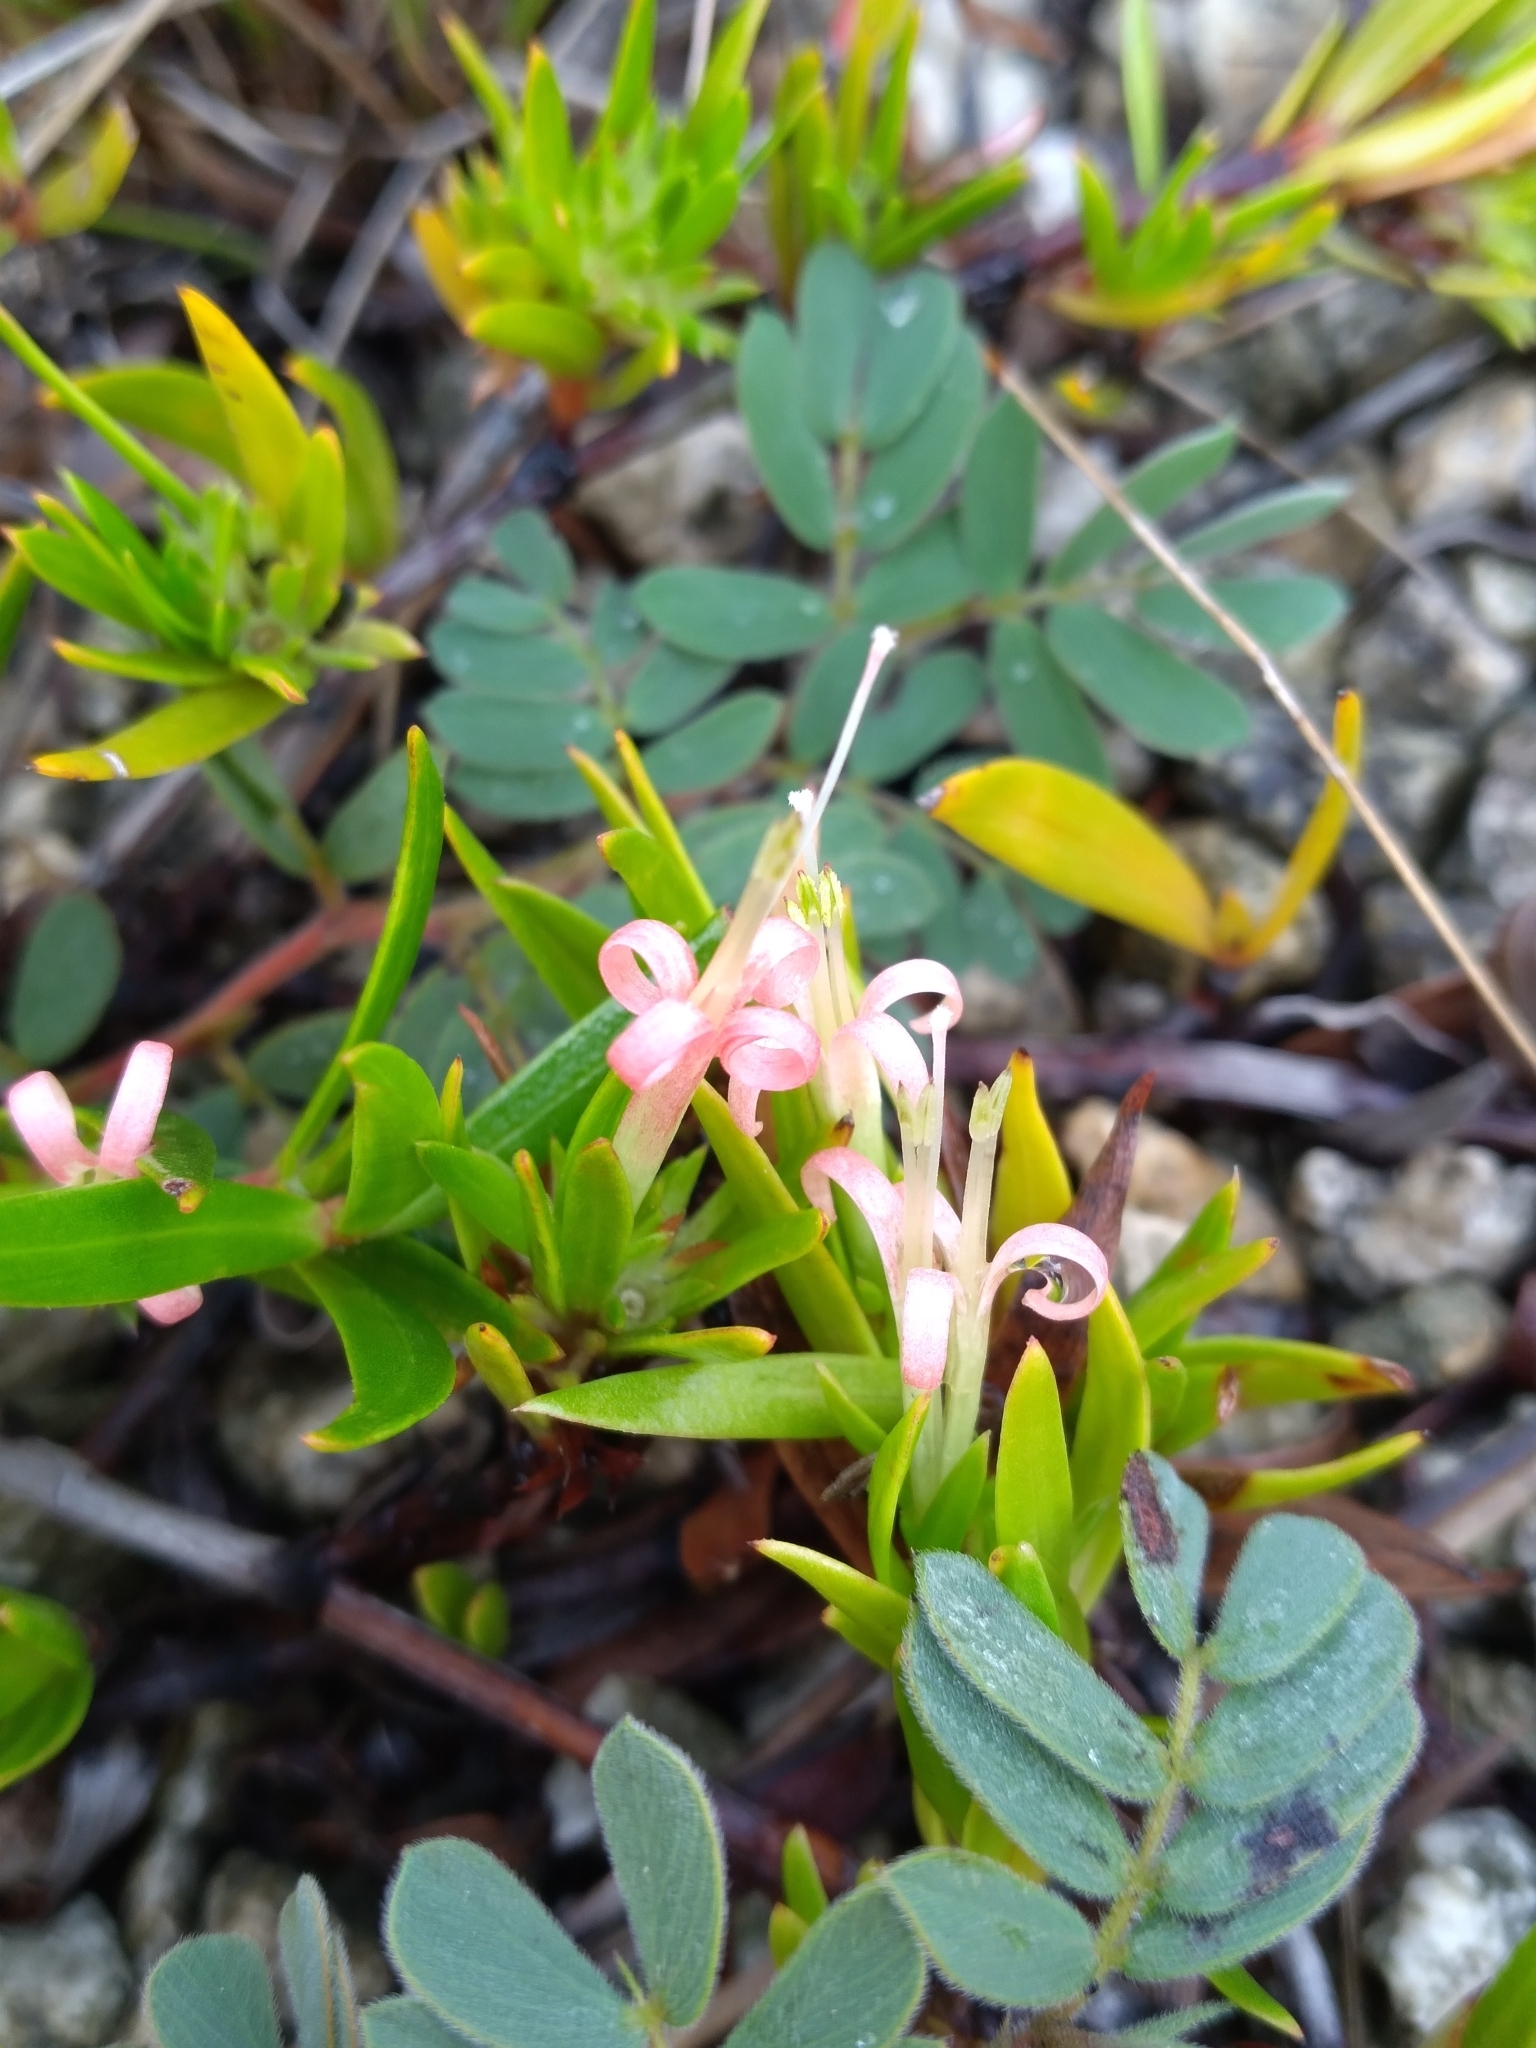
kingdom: Plantae
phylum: Tracheophyta
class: Magnoliopsida
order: Gentianales
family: Rubiaceae
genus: Ernodea
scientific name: Ernodea cokeri
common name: One-nerved ernodea
